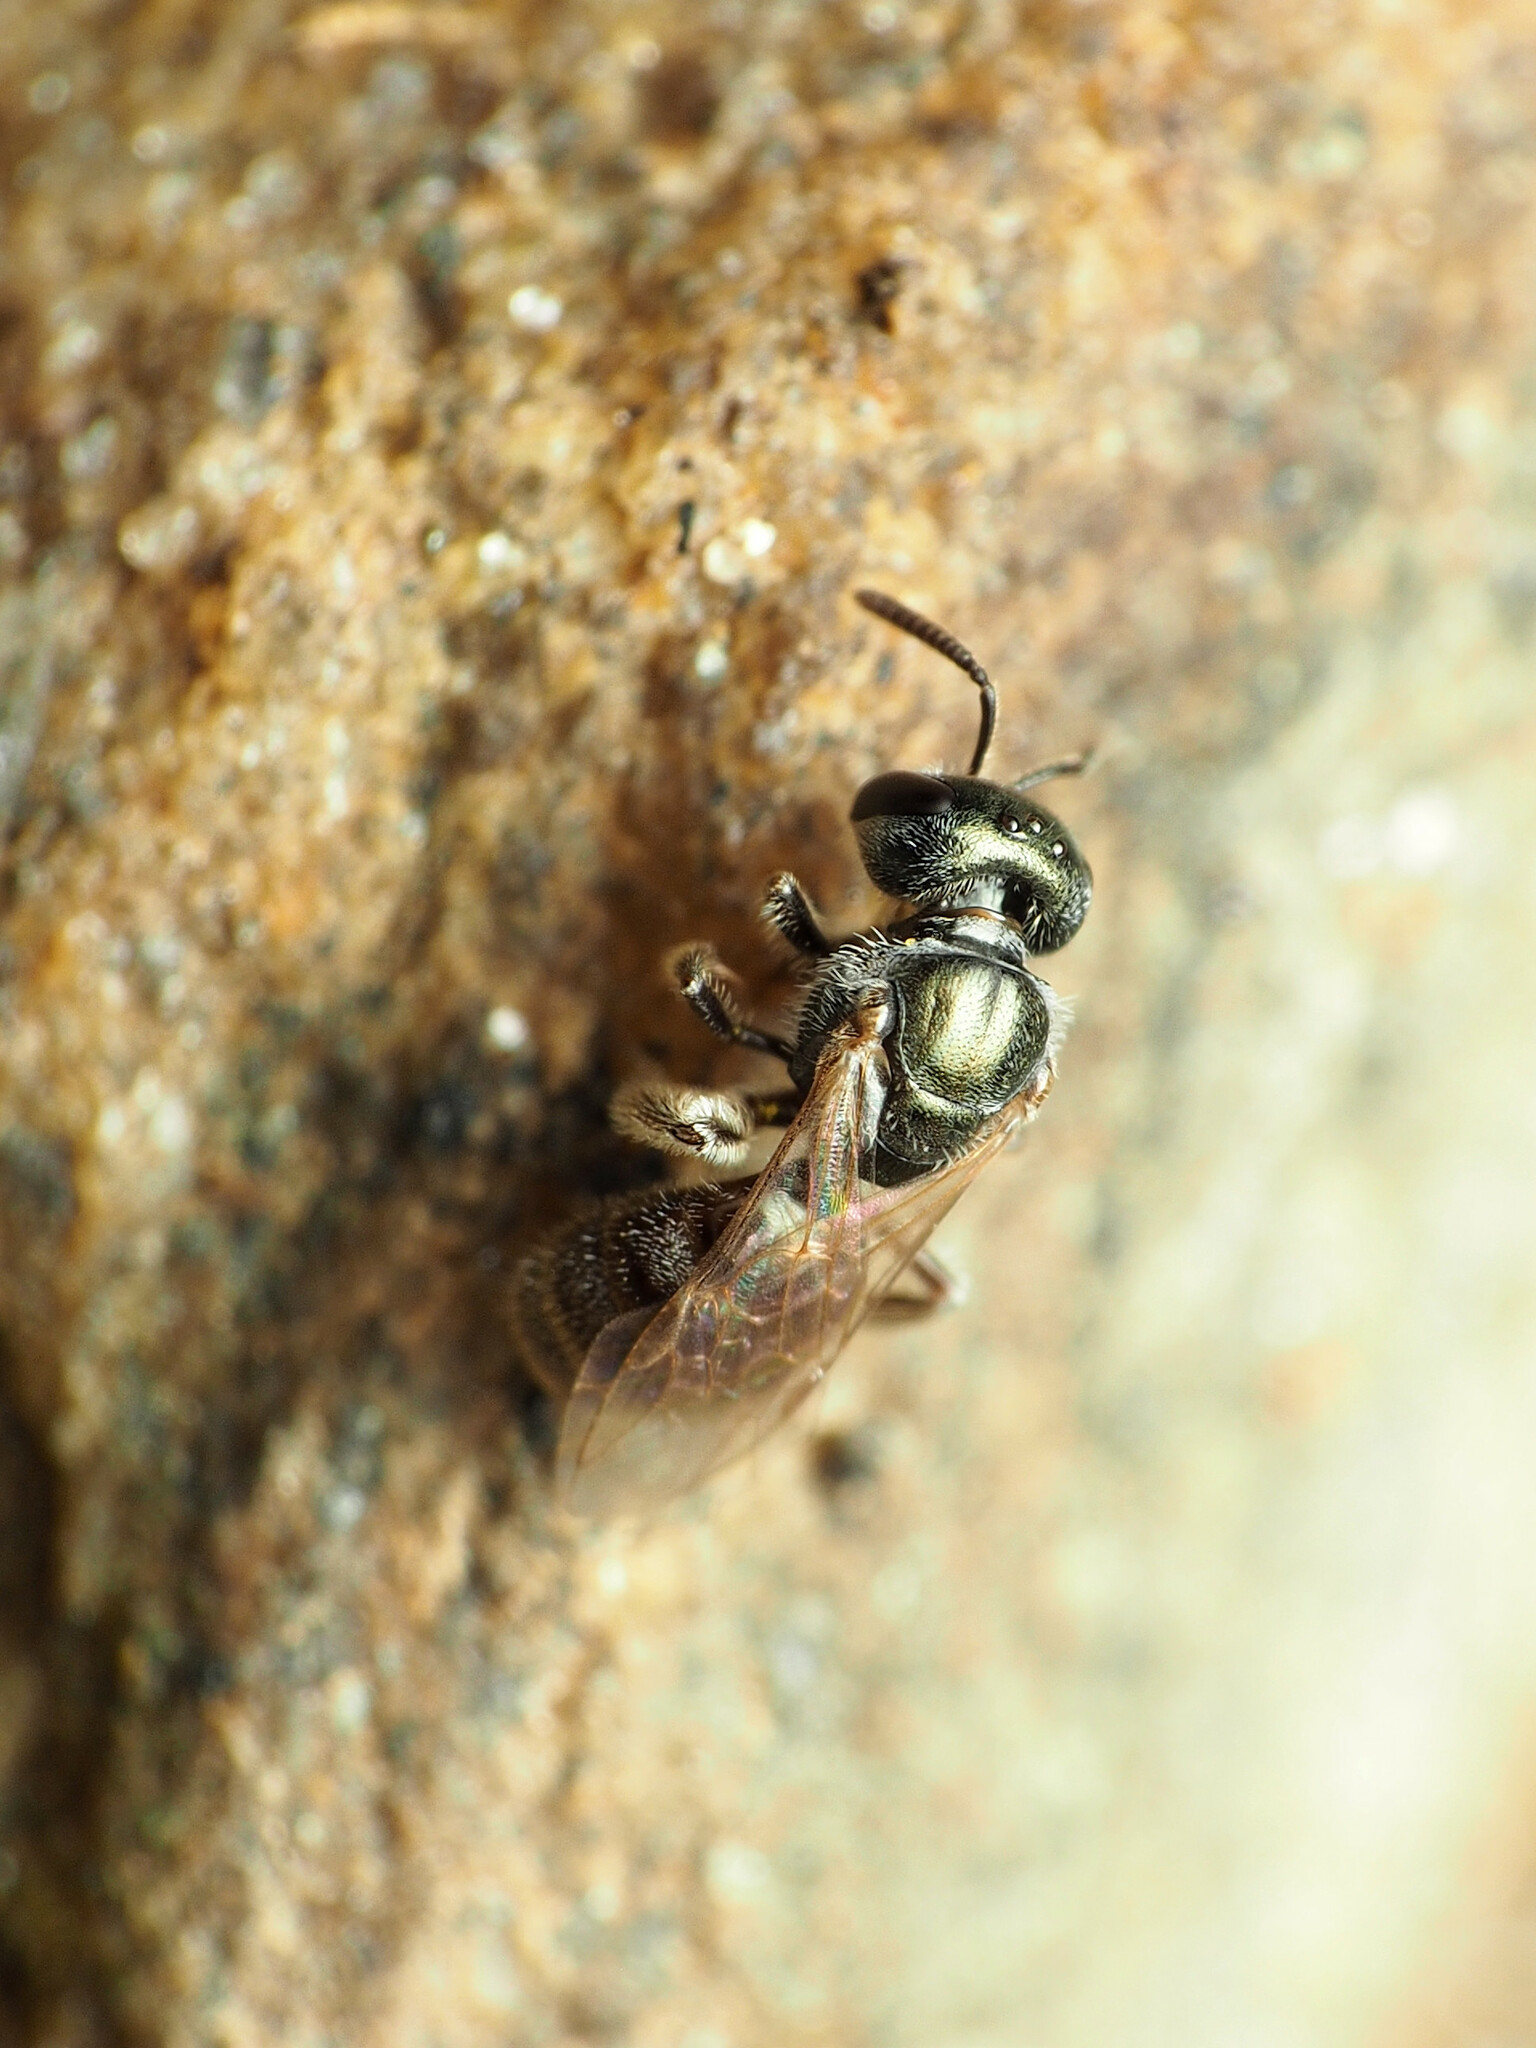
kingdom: Animalia
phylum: Arthropoda
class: Insecta
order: Hymenoptera
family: Halictidae
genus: Lasioglossum
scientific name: Lasioglossum zephyrum
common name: Zephyr sweat bee
